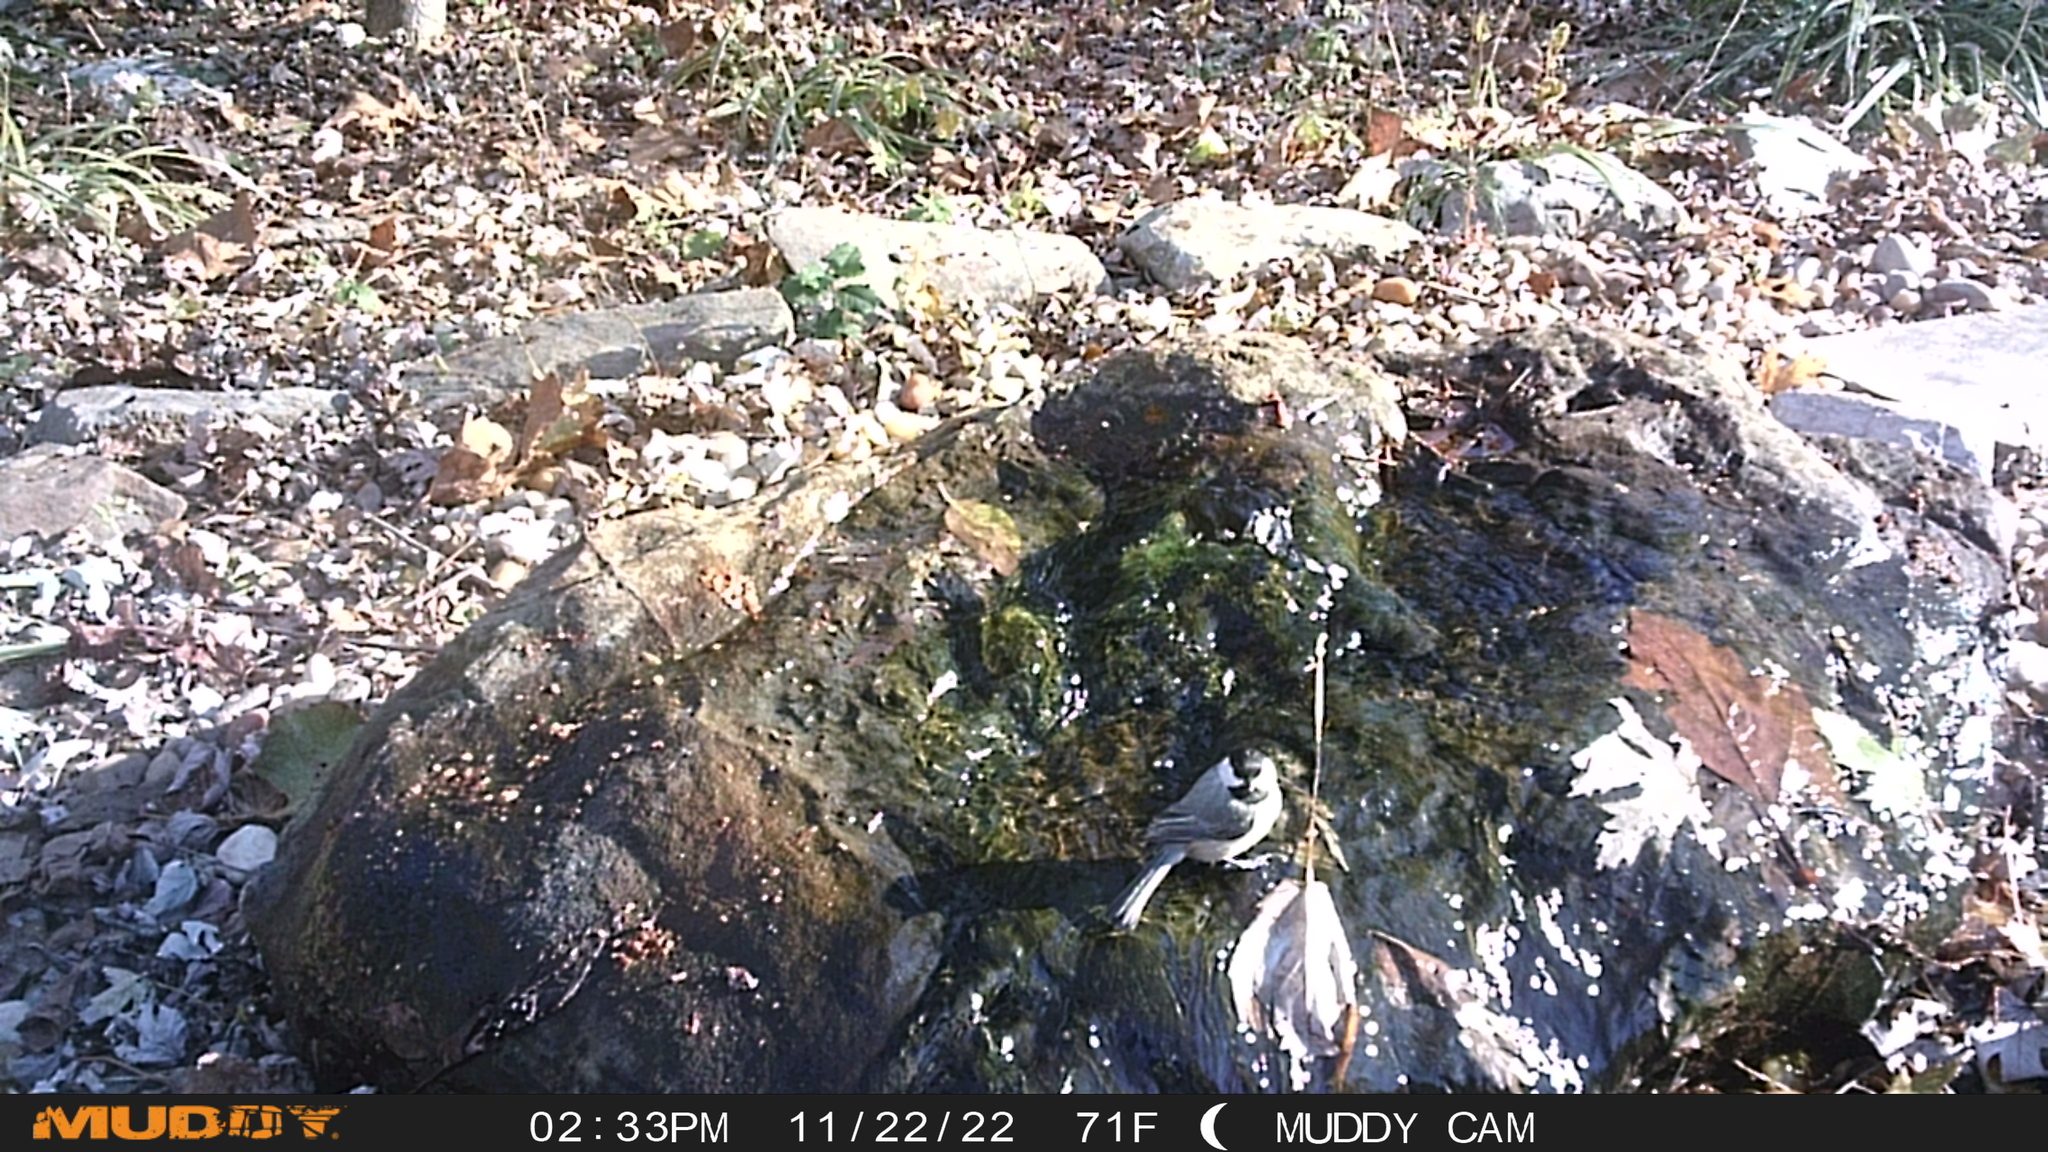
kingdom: Animalia
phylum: Chordata
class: Aves
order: Passeriformes
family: Paridae
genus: Poecile
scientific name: Poecile carolinensis
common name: Carolina chickadee
